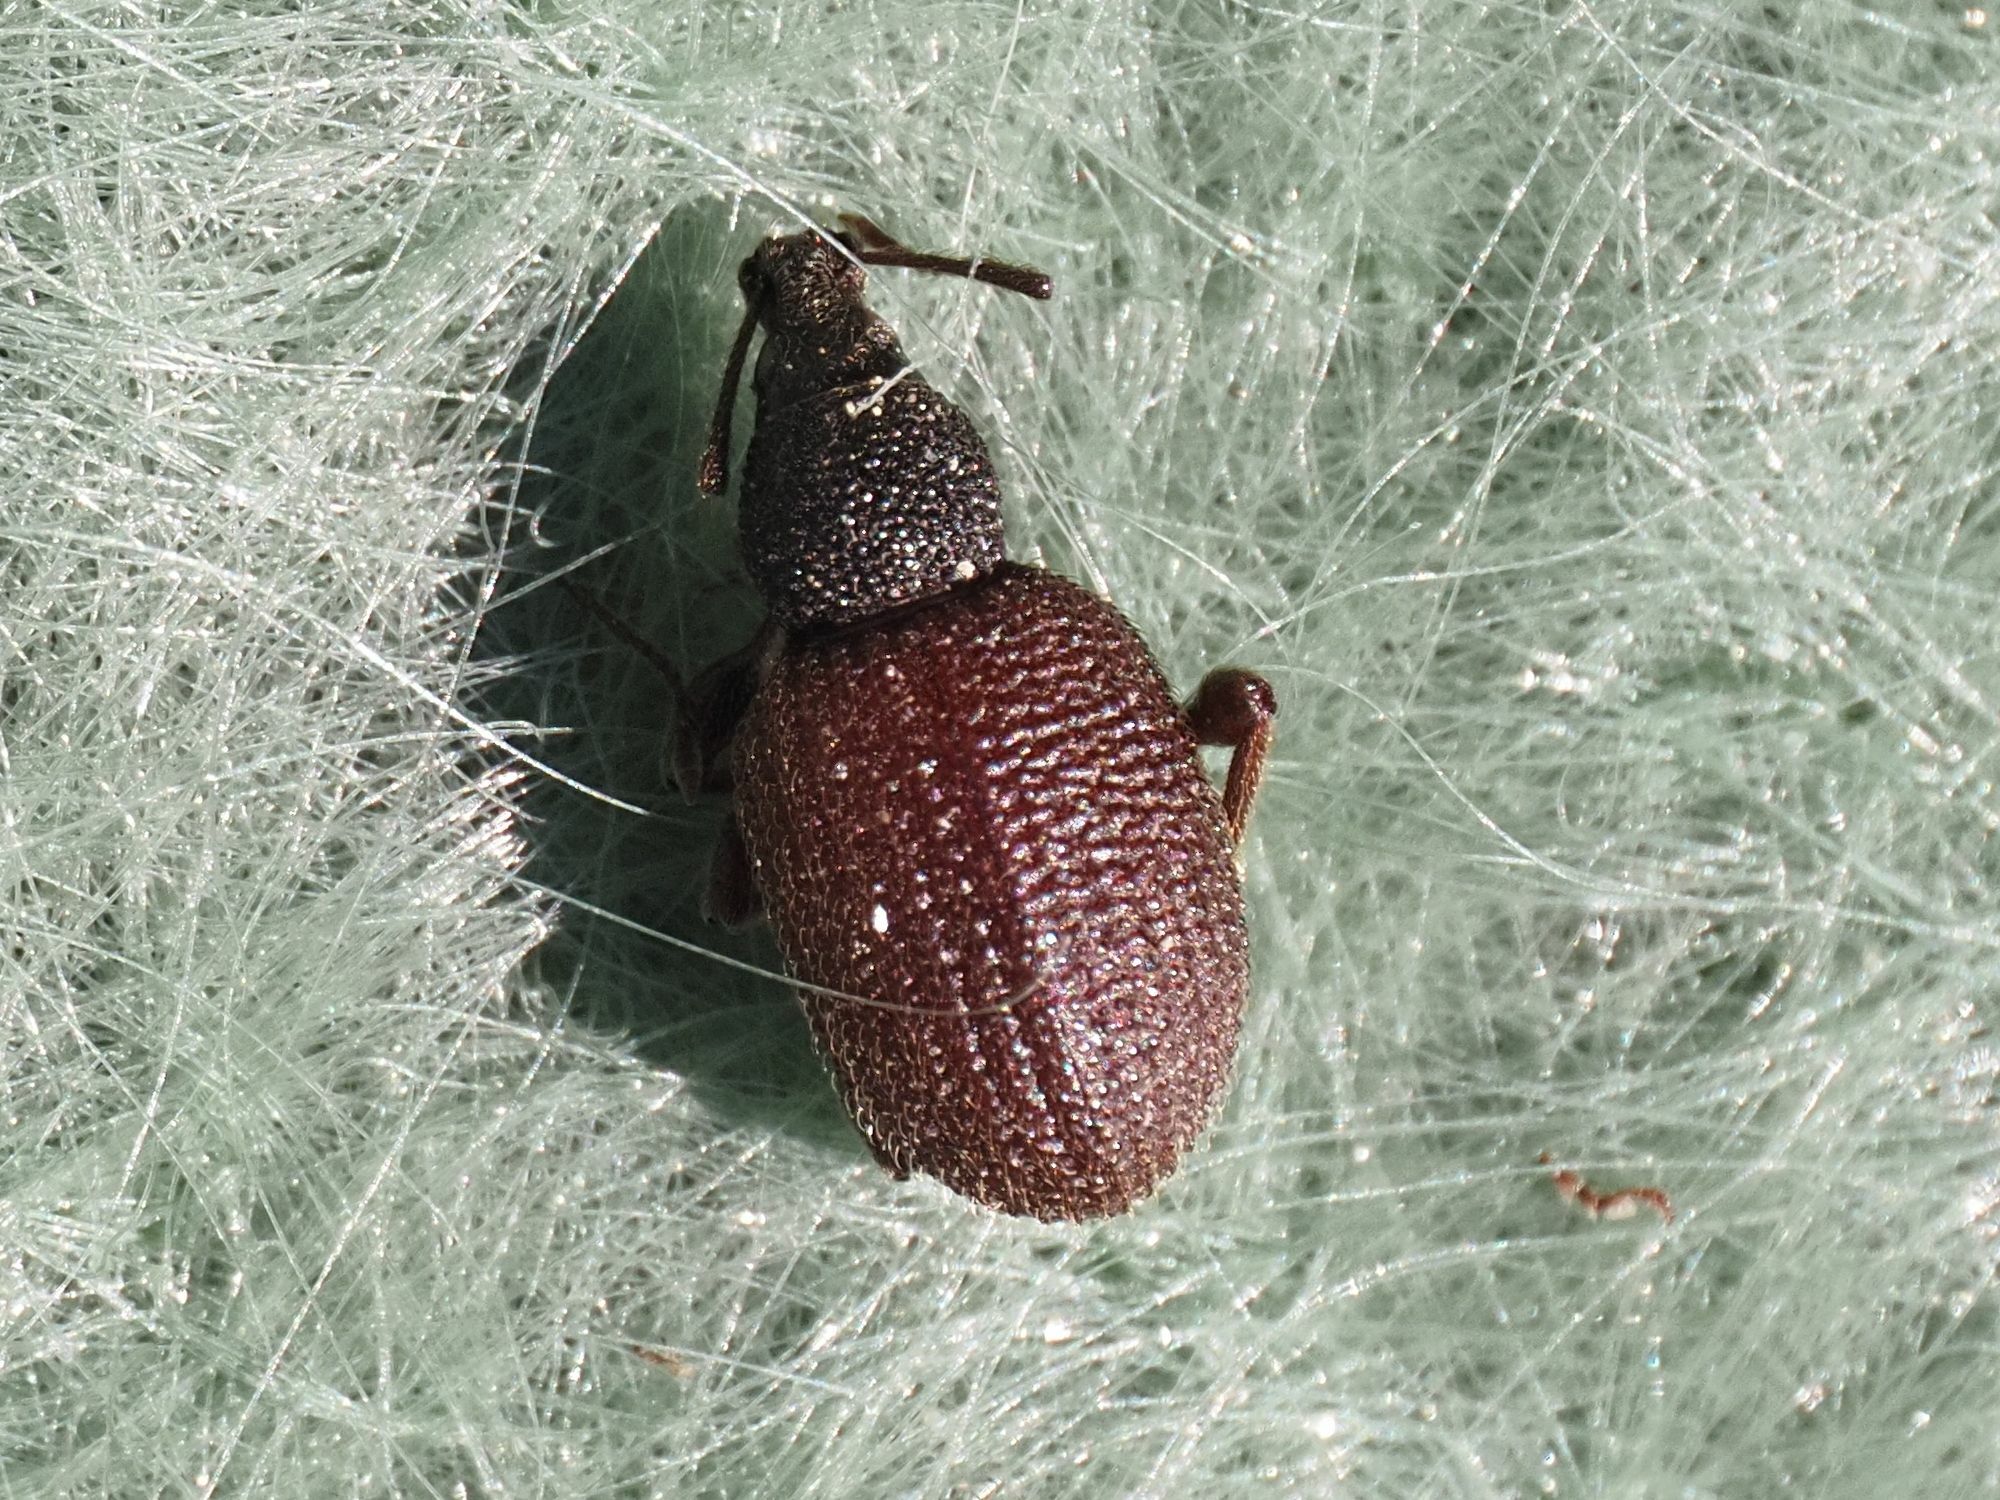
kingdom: Animalia
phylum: Arthropoda
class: Insecta
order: Coleoptera
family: Curculionidae
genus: Otiorhynchus
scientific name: Otiorhynchus rugosostriatus
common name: Weevil
